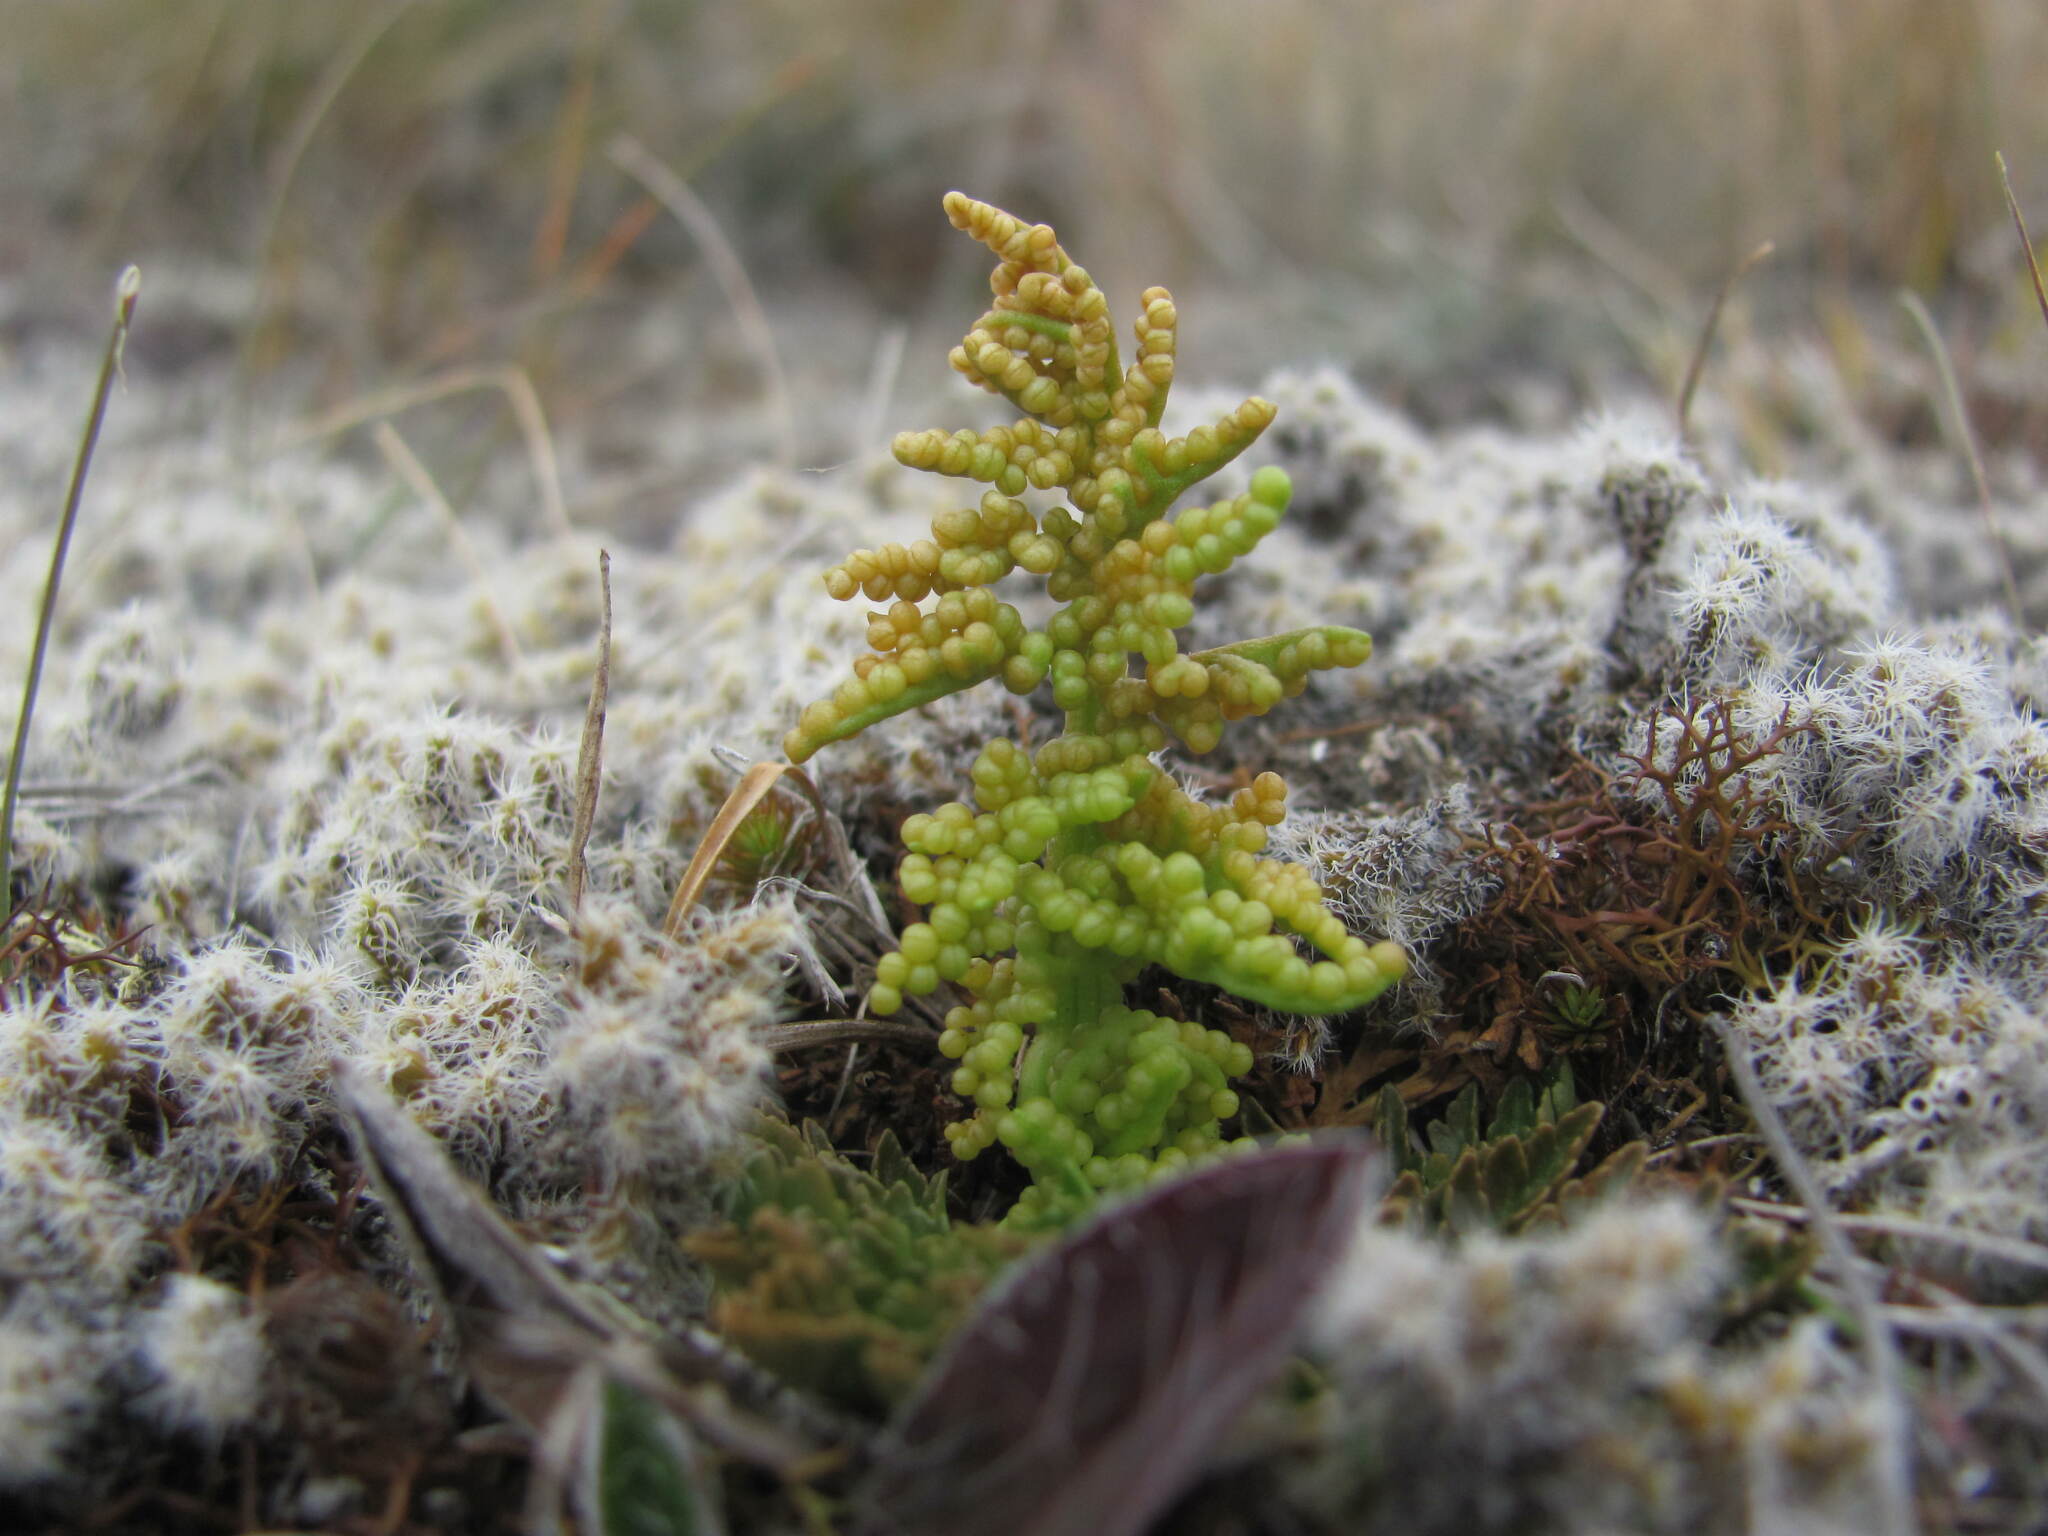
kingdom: Plantae
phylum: Tracheophyta
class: Polypodiopsida
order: Ophioglossales
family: Ophioglossaceae
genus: Sceptridium
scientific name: Sceptridium australe
